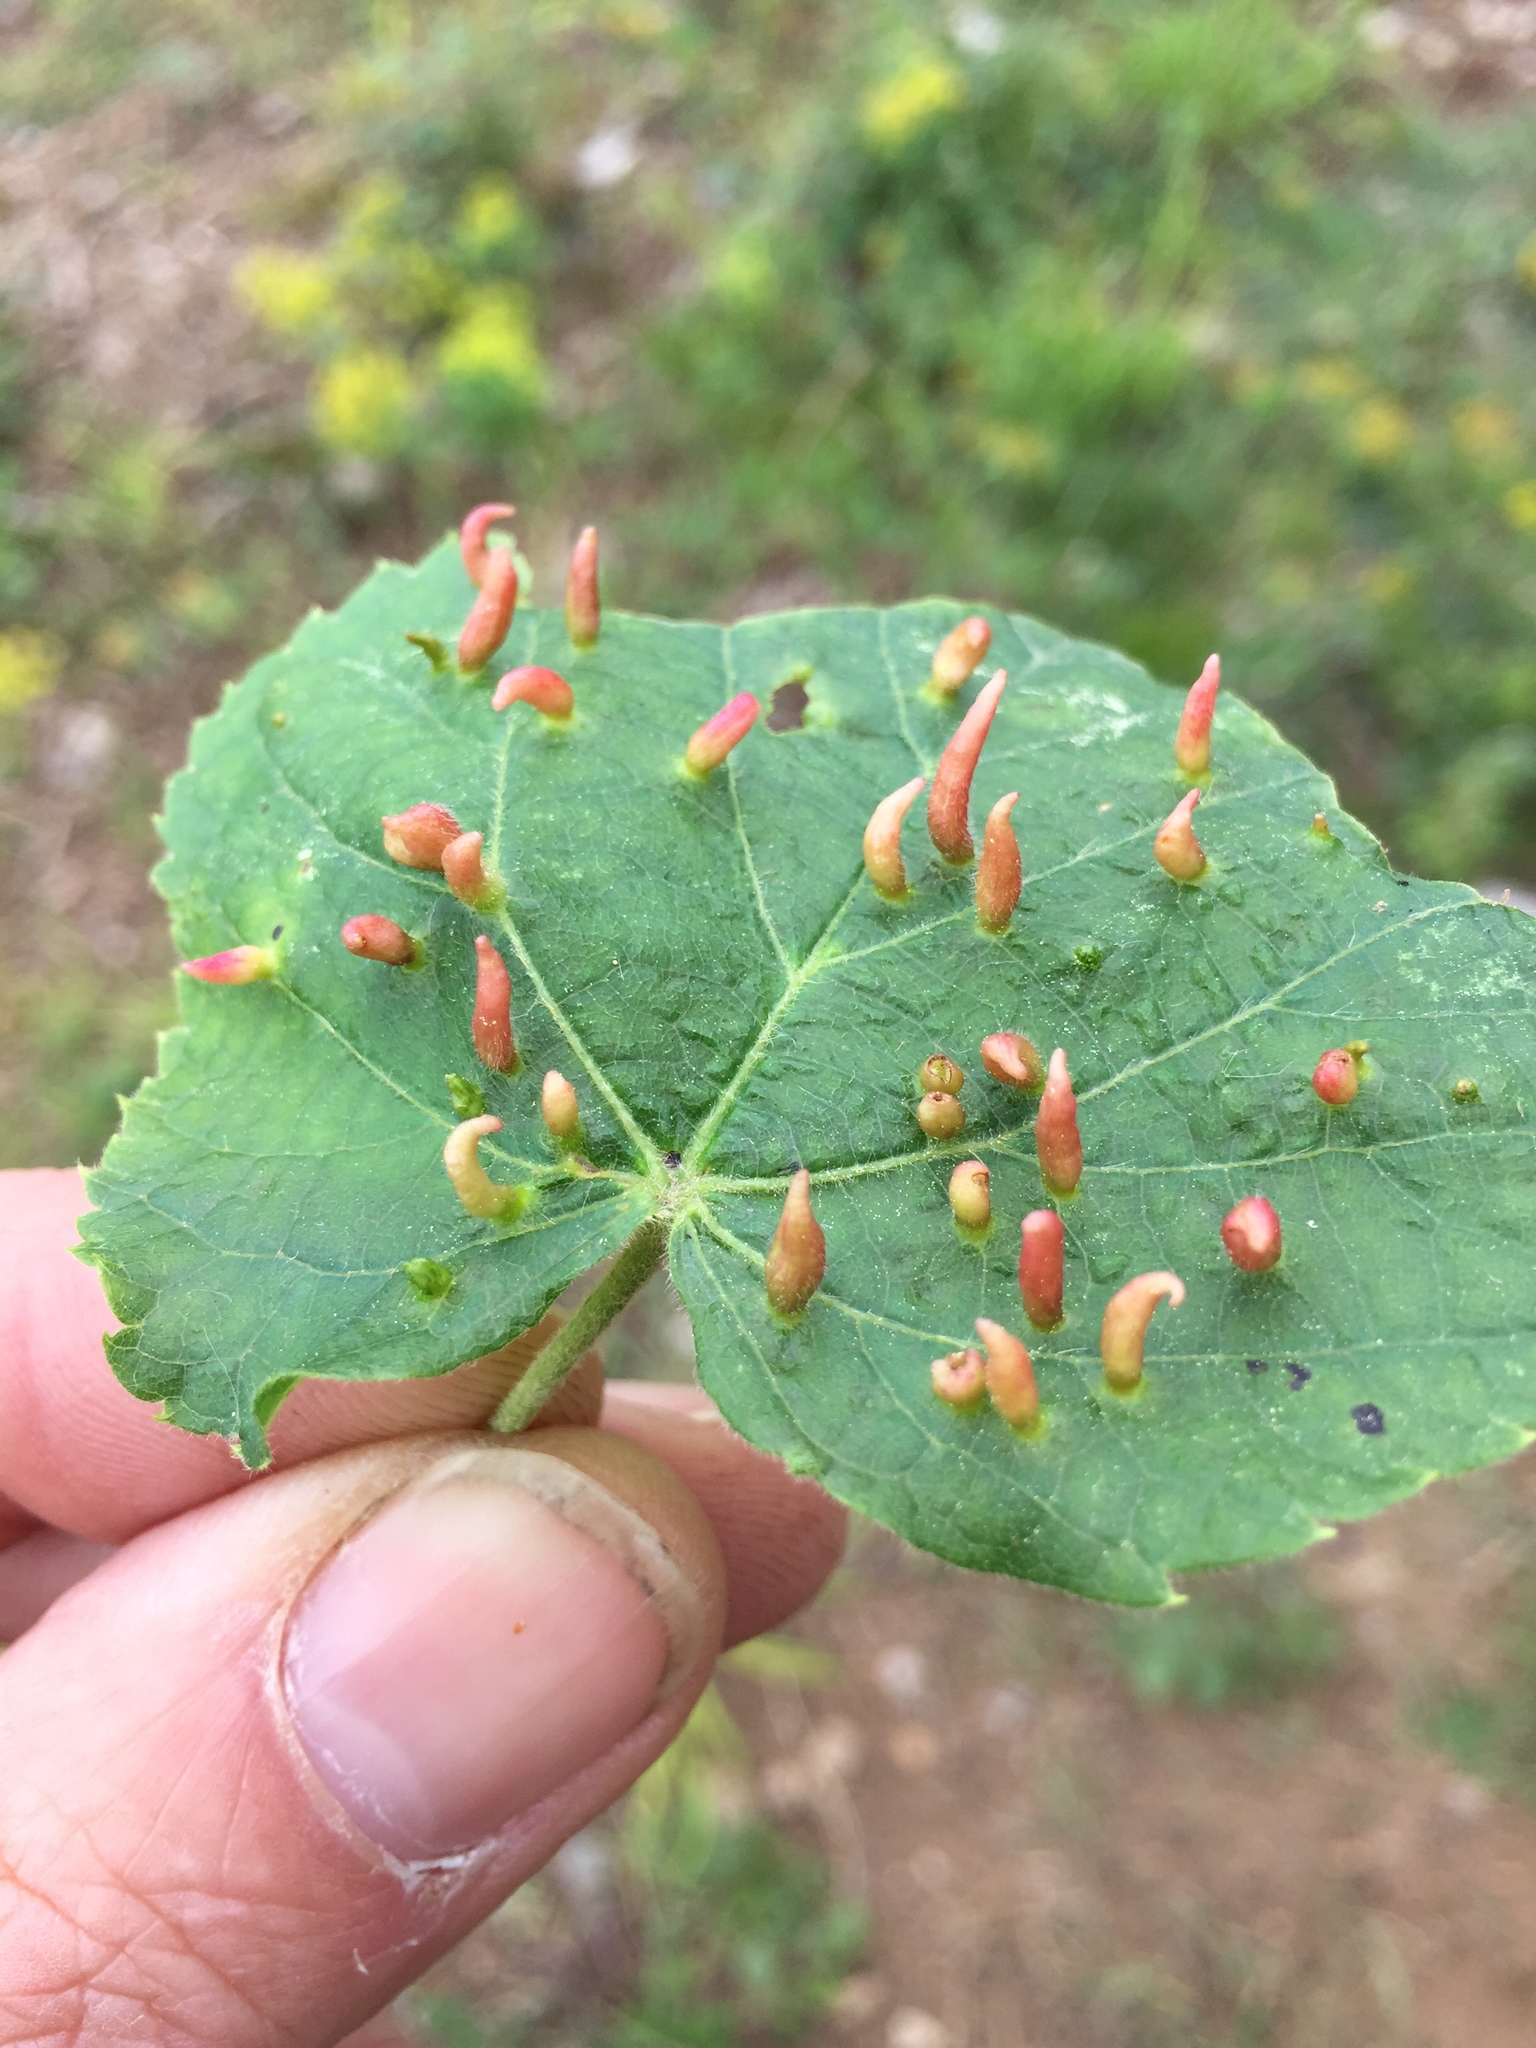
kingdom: Animalia
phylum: Arthropoda
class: Arachnida
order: Trombidiformes
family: Eriophyidae
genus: Eriophyes
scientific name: Eriophyes tiliae
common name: Red nail gall mite
